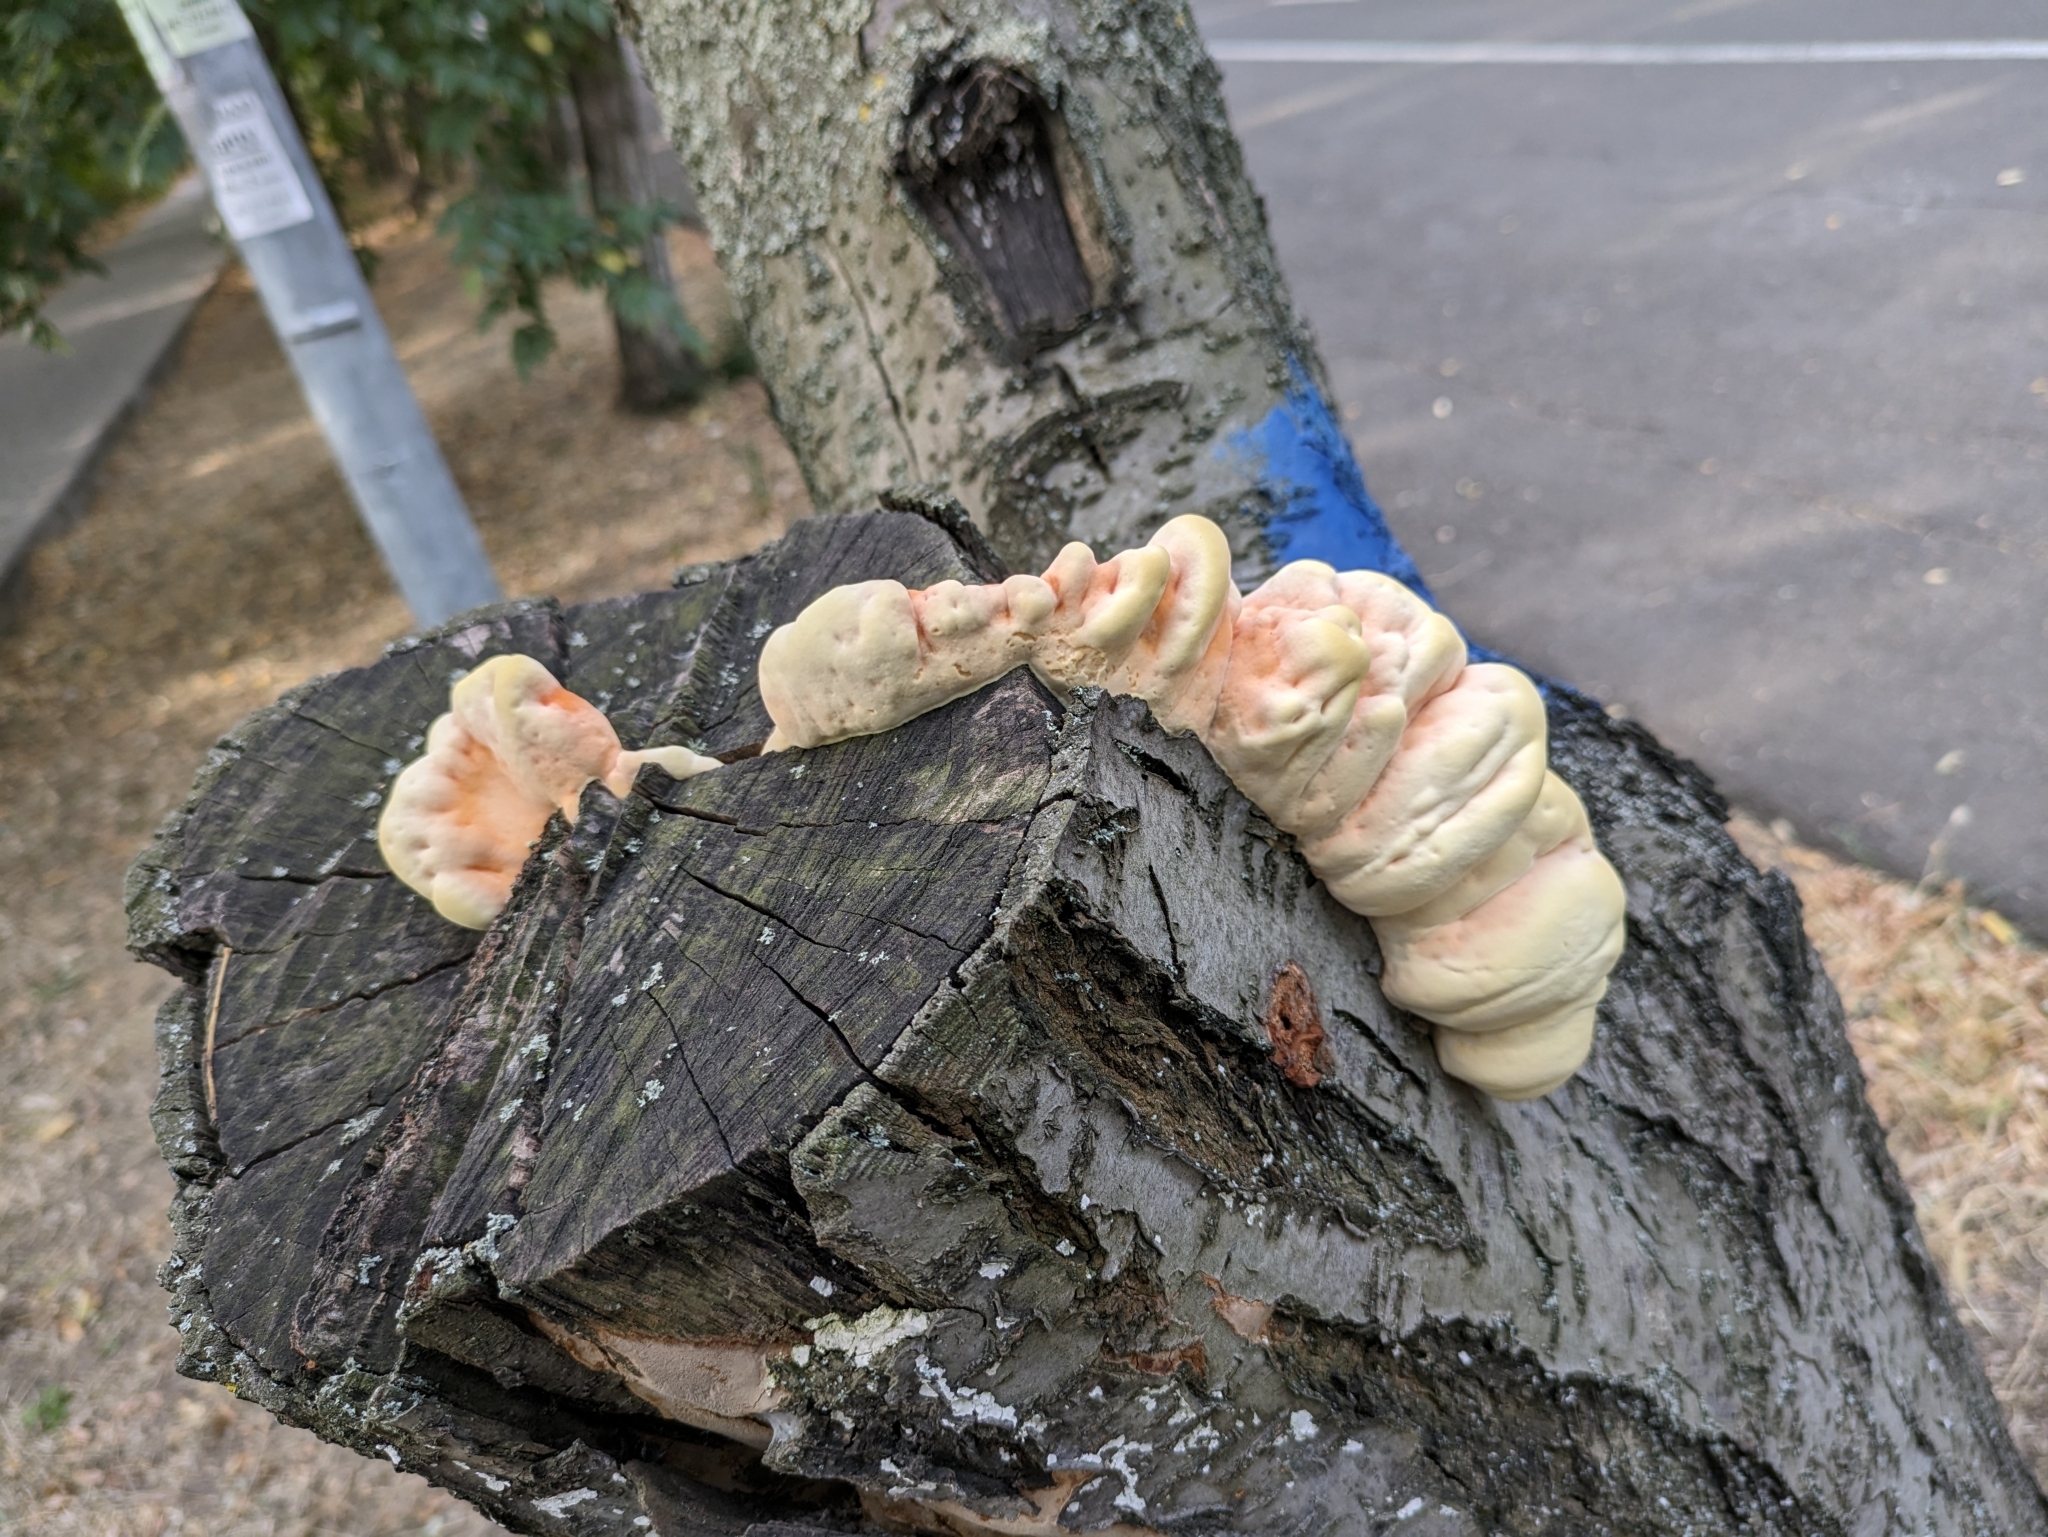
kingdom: Fungi
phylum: Basidiomycota
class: Agaricomycetes
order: Polyporales
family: Laetiporaceae
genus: Laetiporus
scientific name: Laetiporus sulphureus
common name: Chicken of the woods
